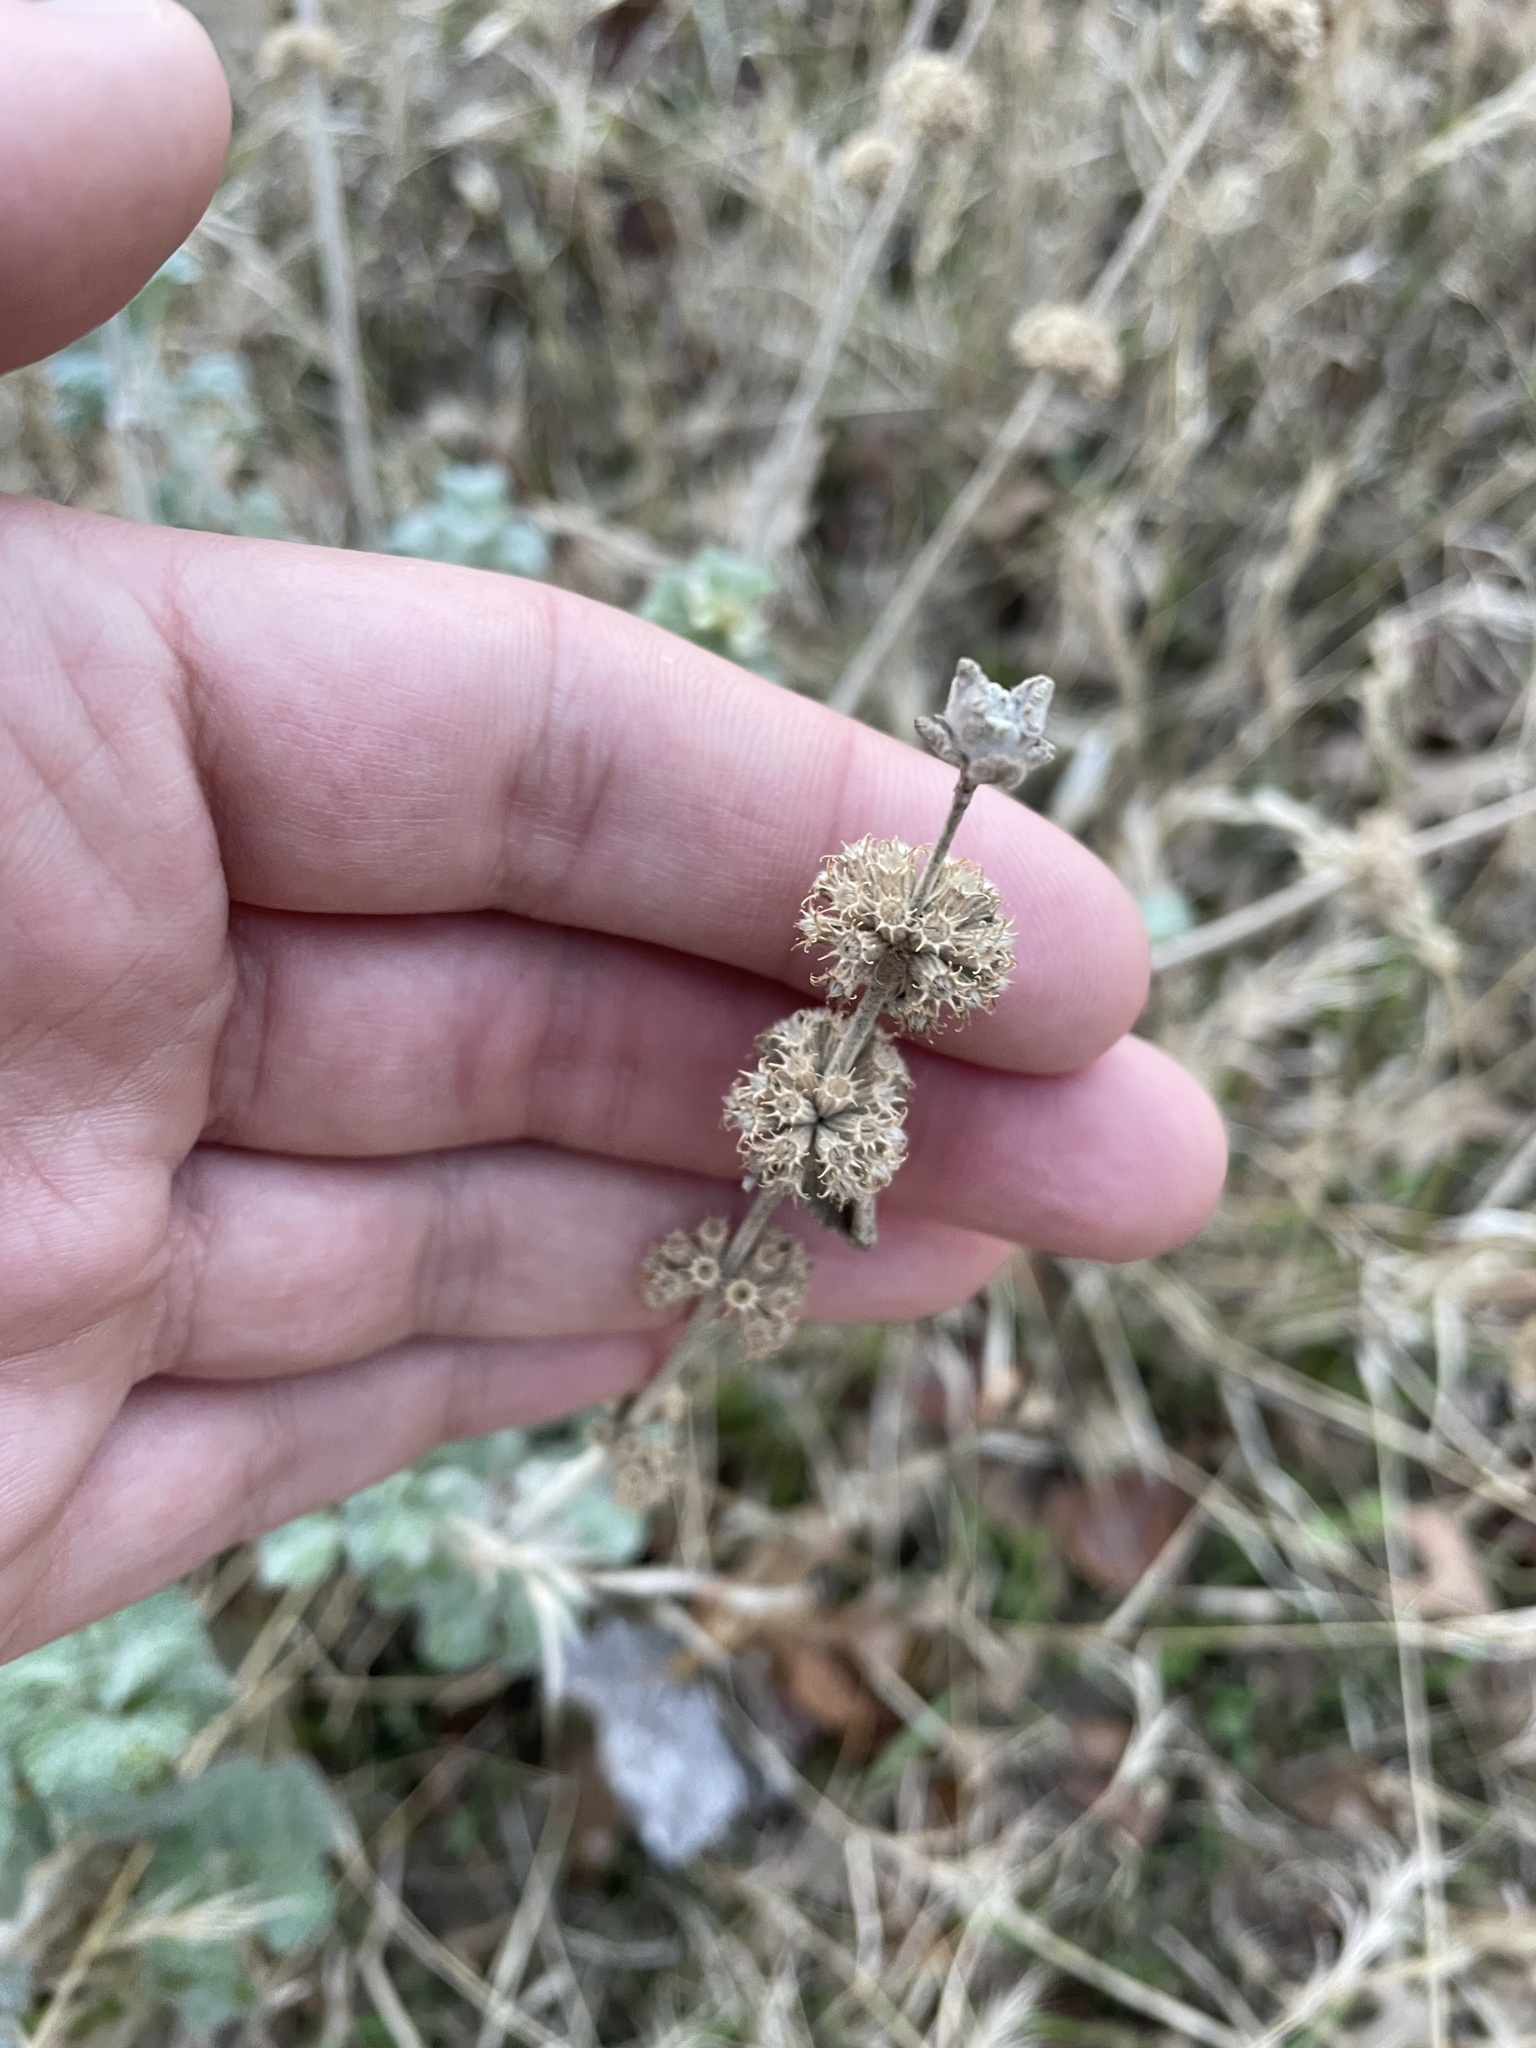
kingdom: Plantae
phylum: Tracheophyta
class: Magnoliopsida
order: Lamiales
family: Lamiaceae
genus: Marrubium
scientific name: Marrubium vulgare
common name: Horehound
